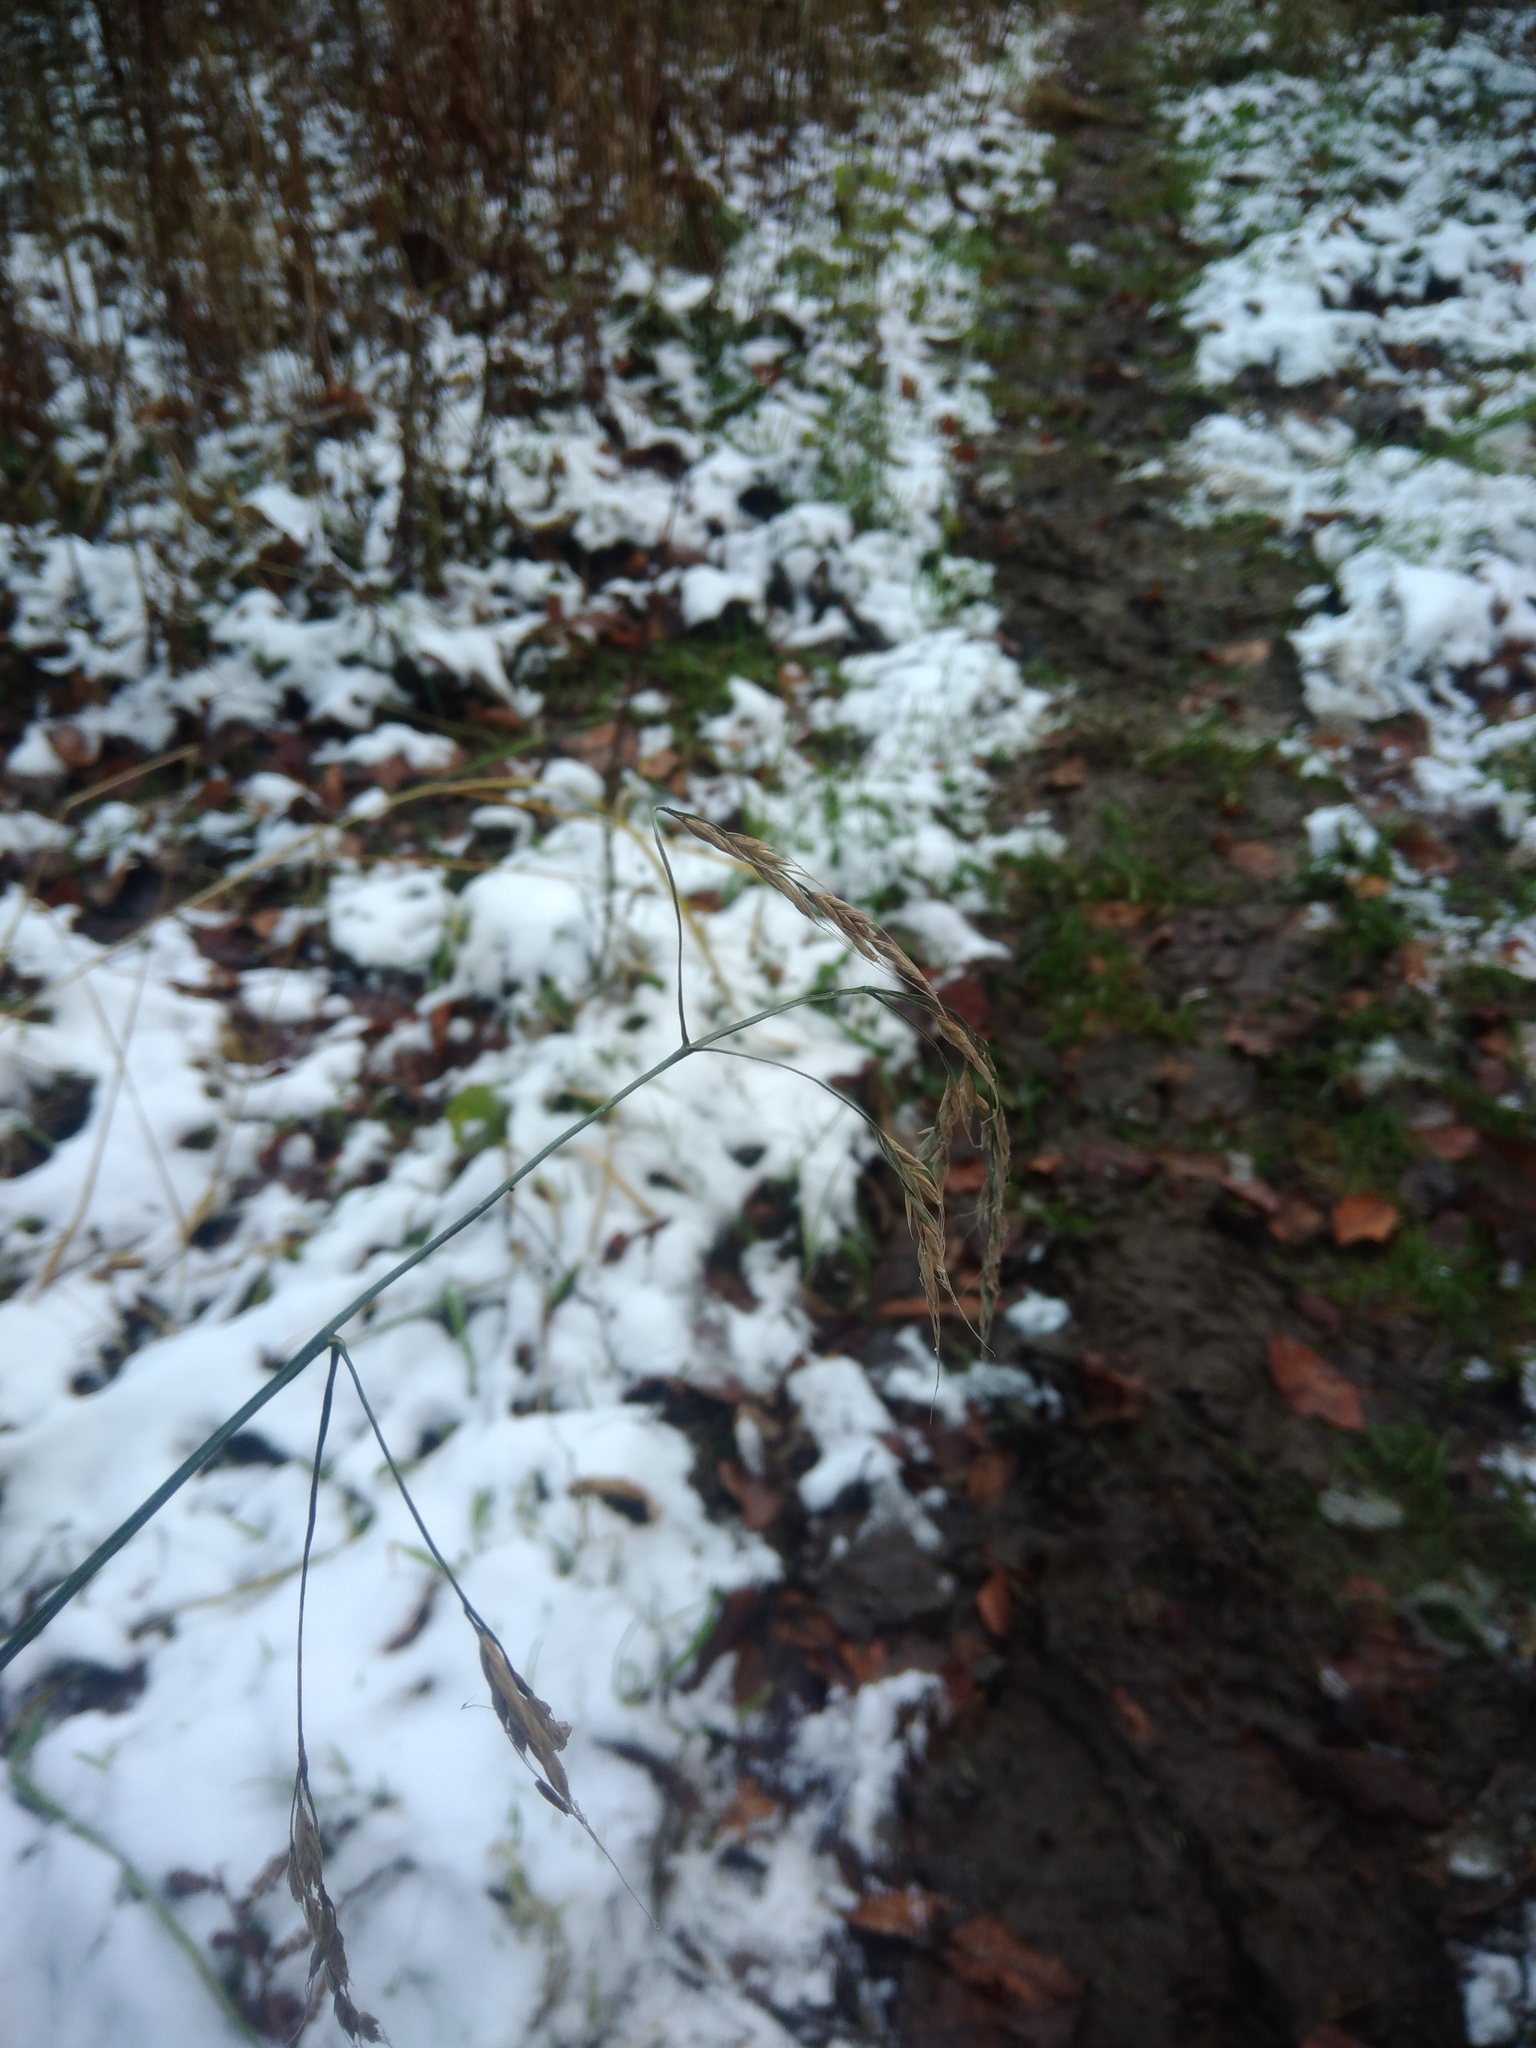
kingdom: Plantae
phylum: Tracheophyta
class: Liliopsida
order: Poales
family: Poaceae
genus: Lolium
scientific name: Lolium giganteum
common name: Giant fescue
